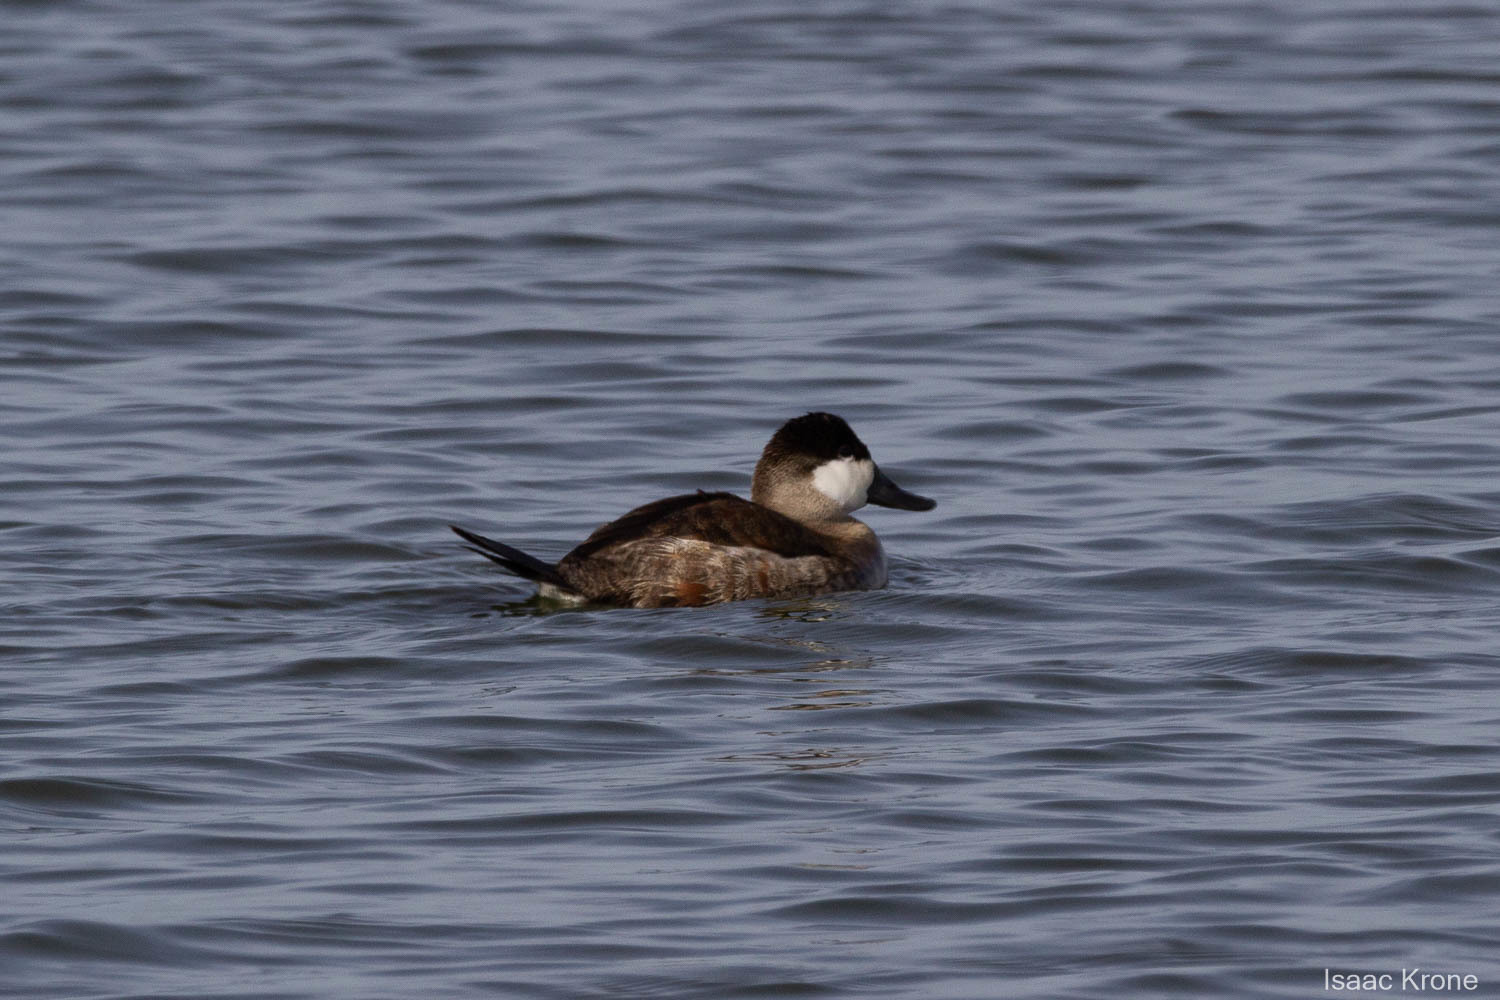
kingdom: Animalia
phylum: Chordata
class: Aves
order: Anseriformes
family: Anatidae
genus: Oxyura
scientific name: Oxyura jamaicensis
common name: Ruddy duck
